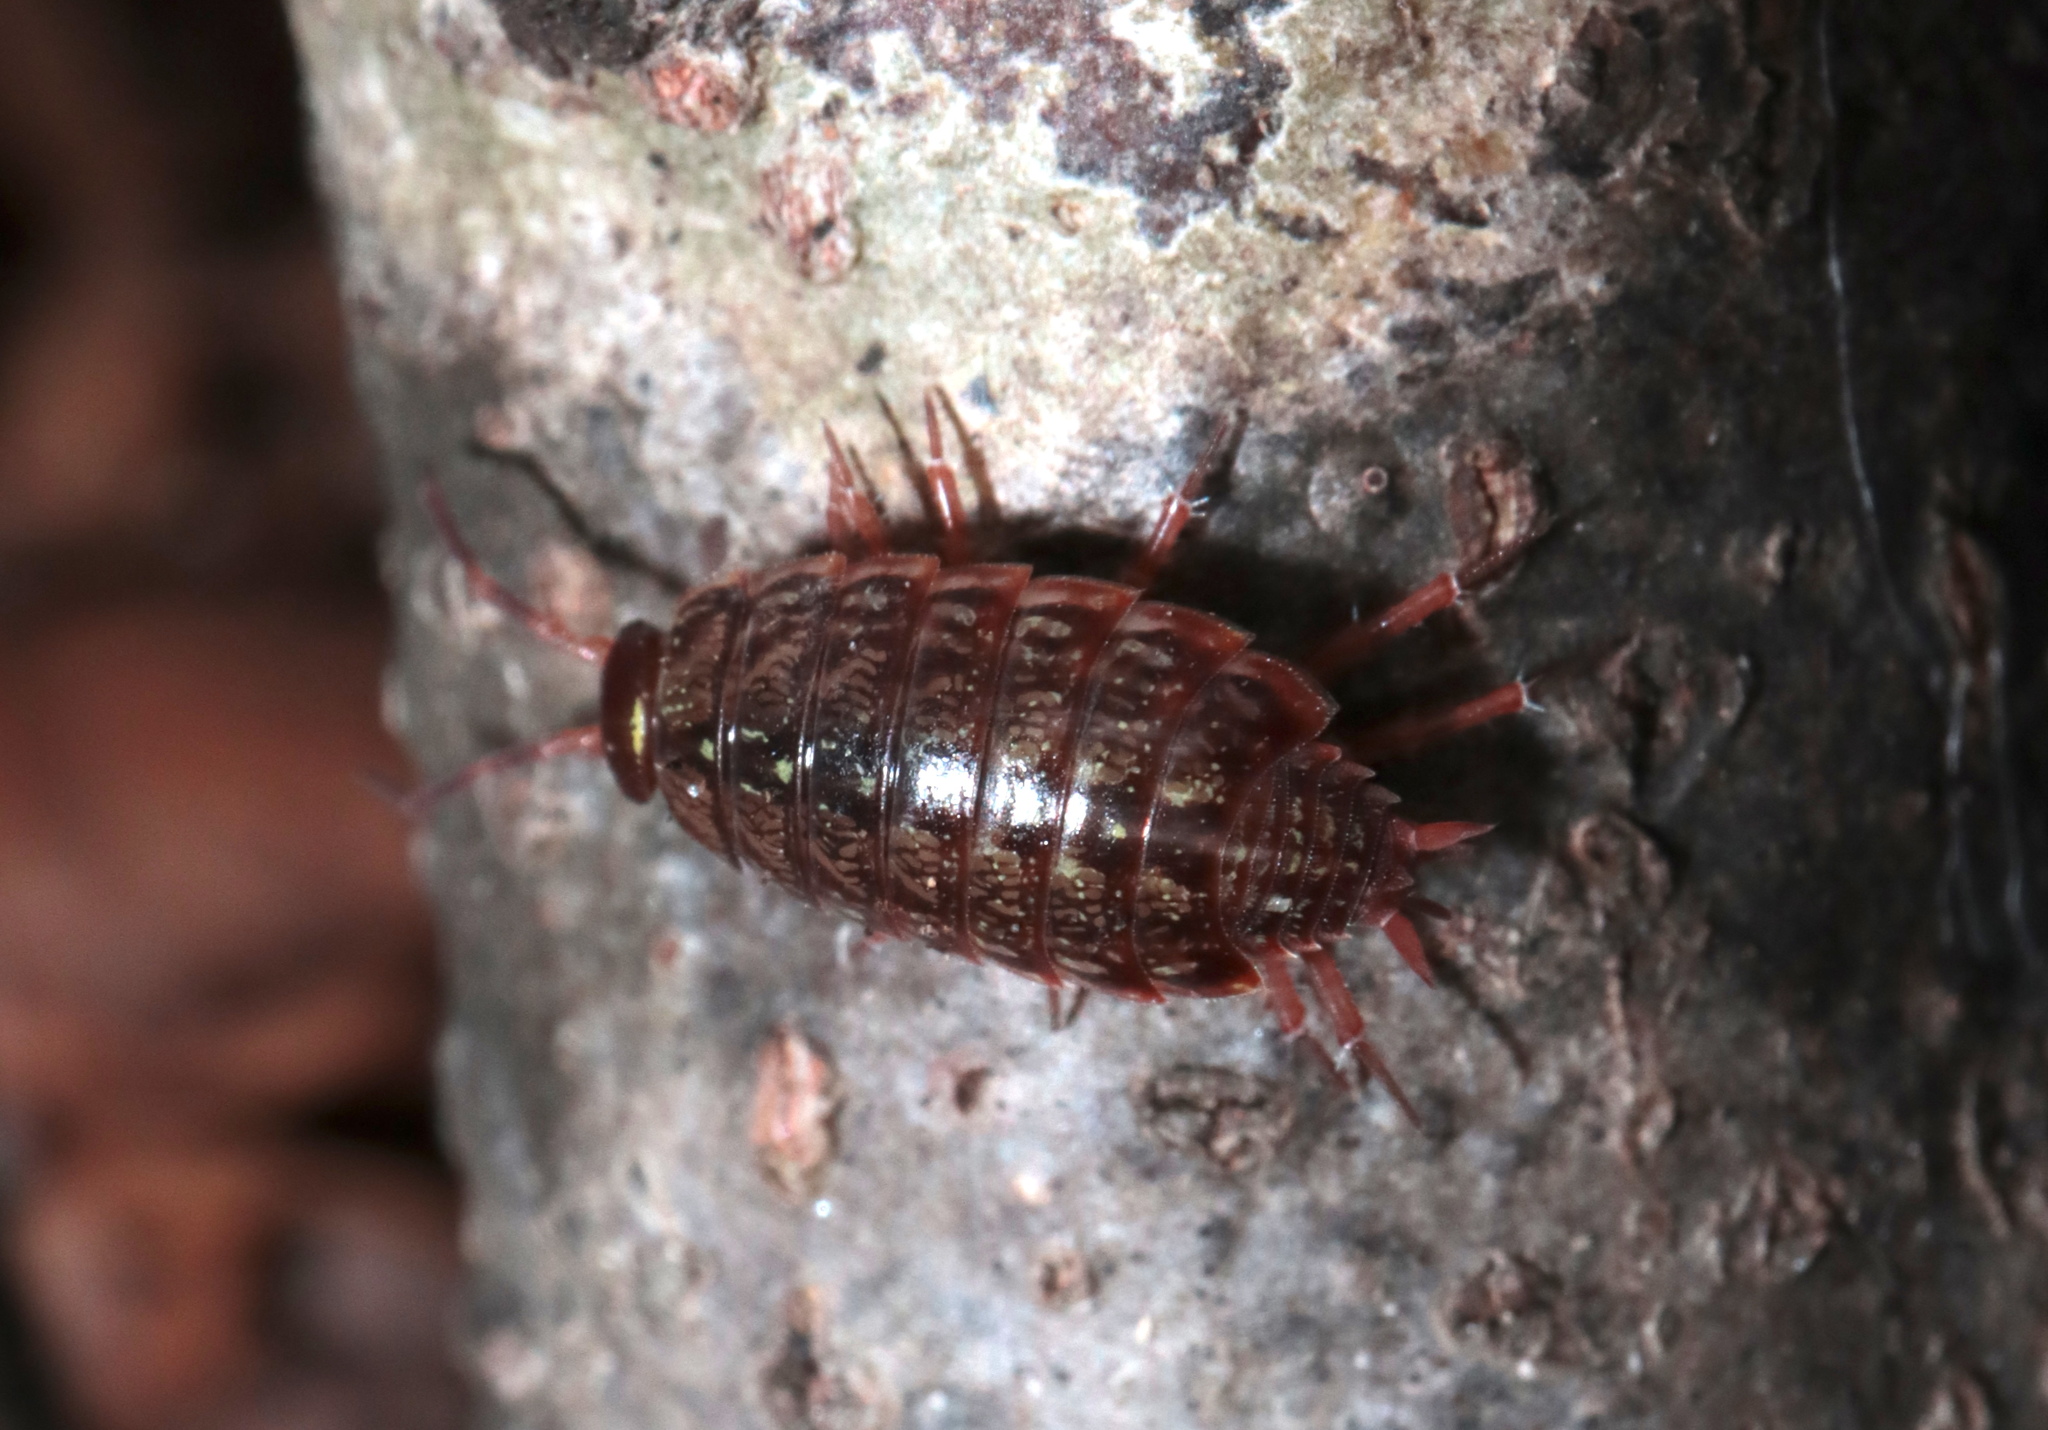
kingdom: Animalia
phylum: Arthropoda
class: Malacostraca
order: Isopoda
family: Philosciidae
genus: Philoscia
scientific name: Philoscia muscorum
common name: Common striped woodlouse
